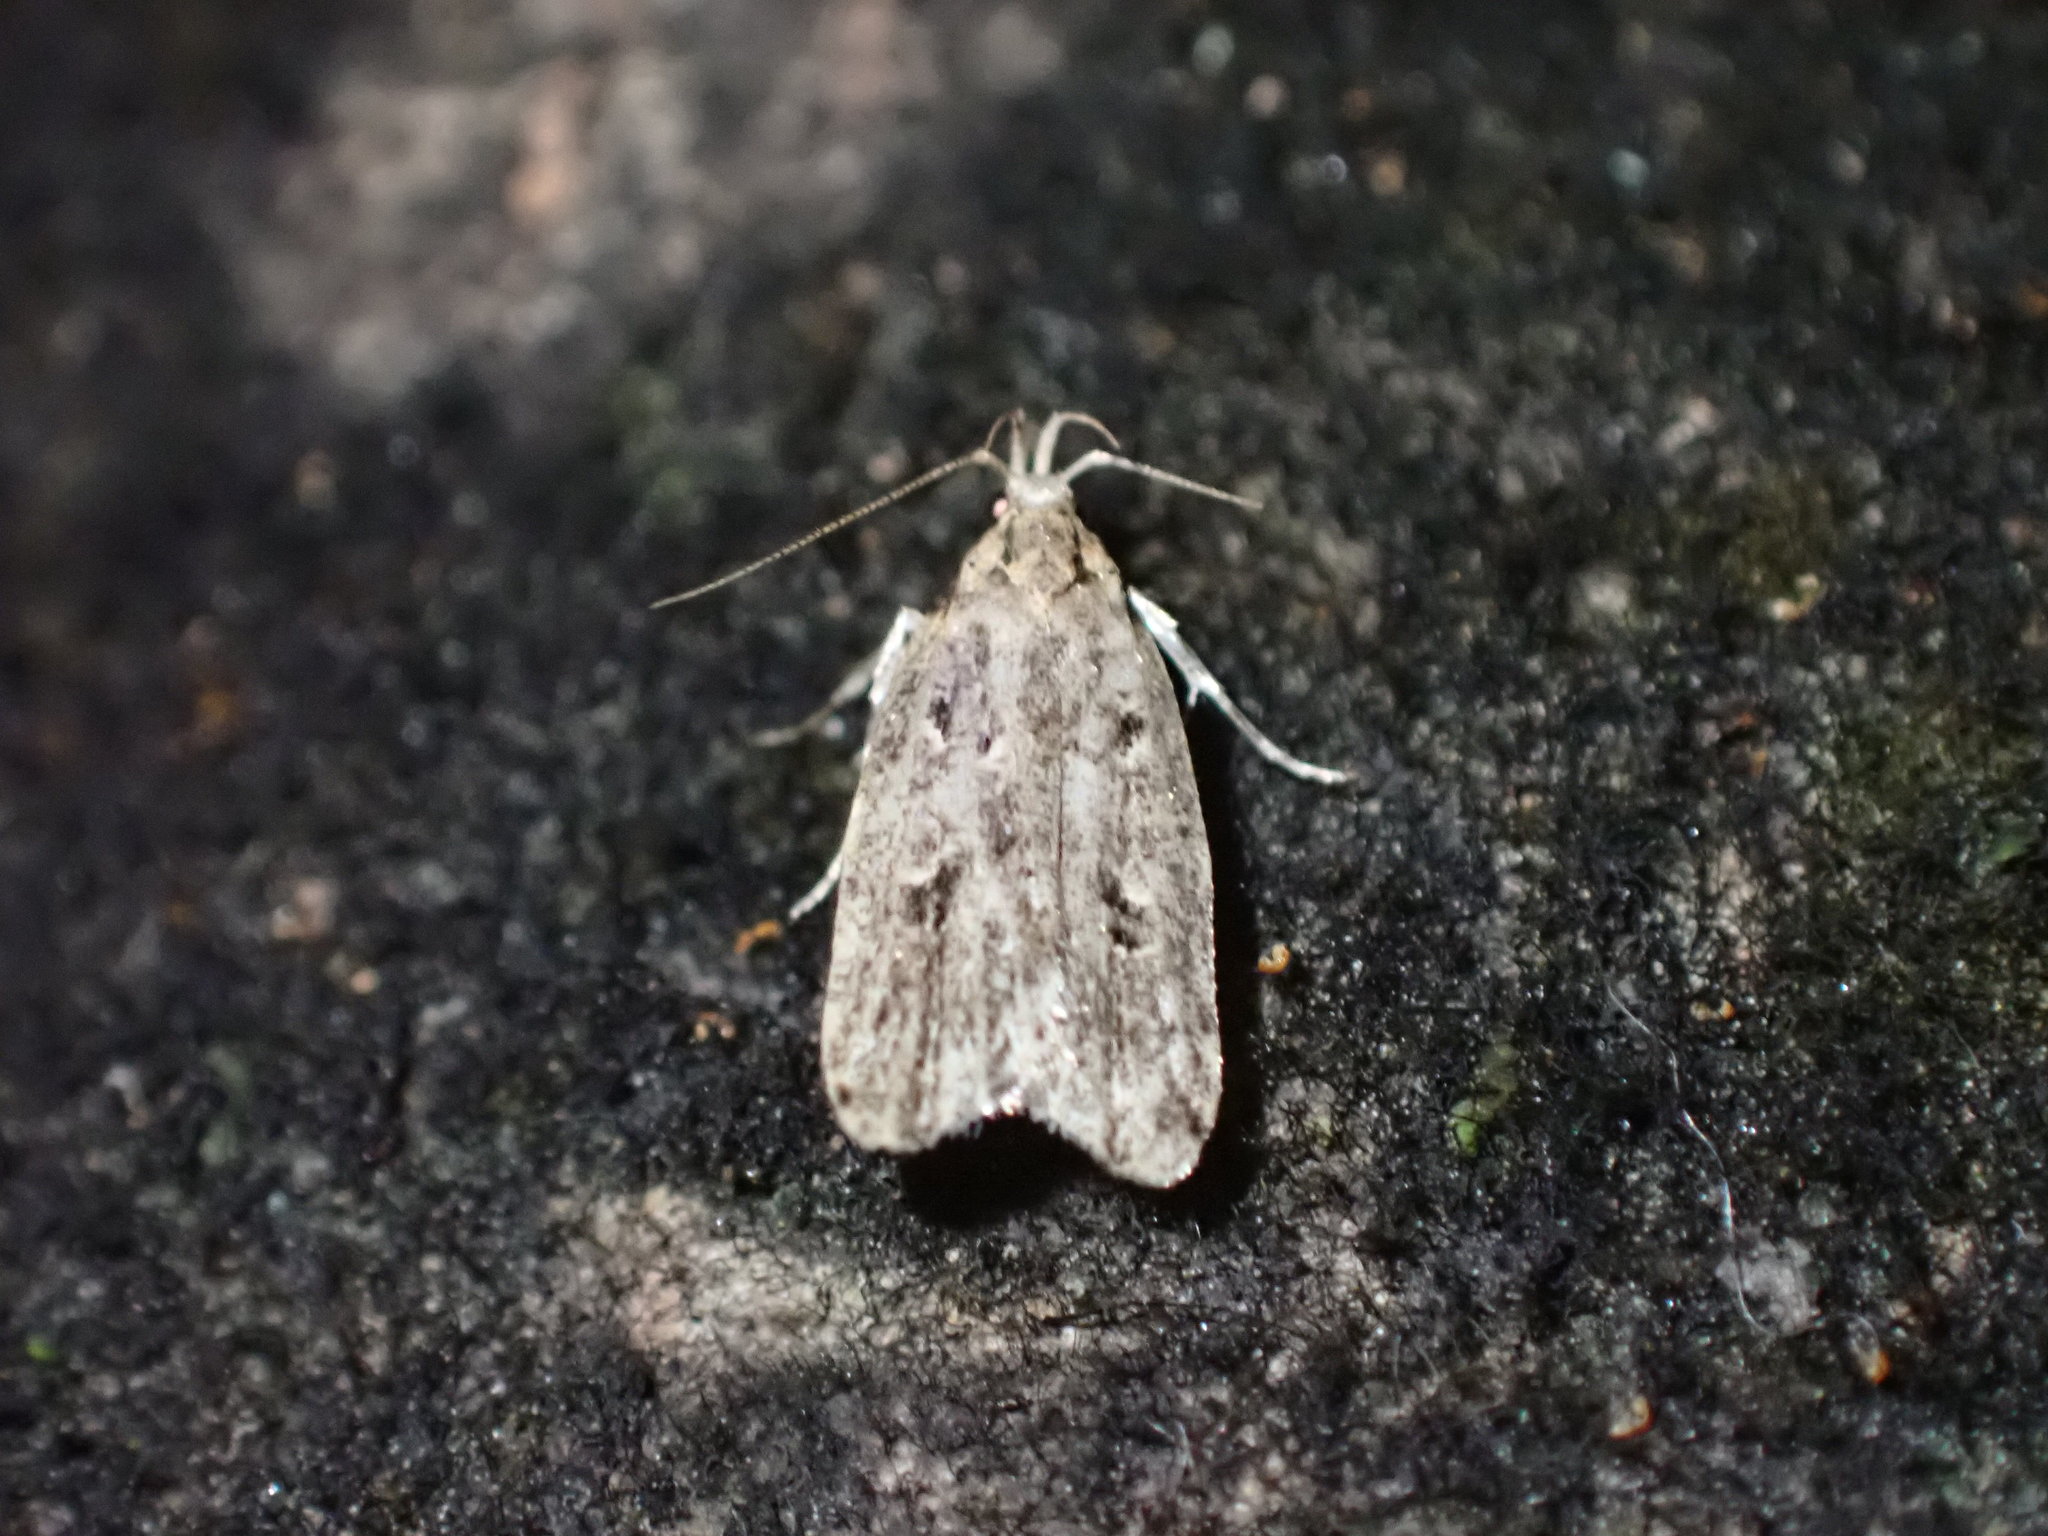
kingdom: Animalia
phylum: Arthropoda
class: Insecta
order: Lepidoptera
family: Oecophoridae
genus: Gymnobathra
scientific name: Gymnobathra dinocosma
